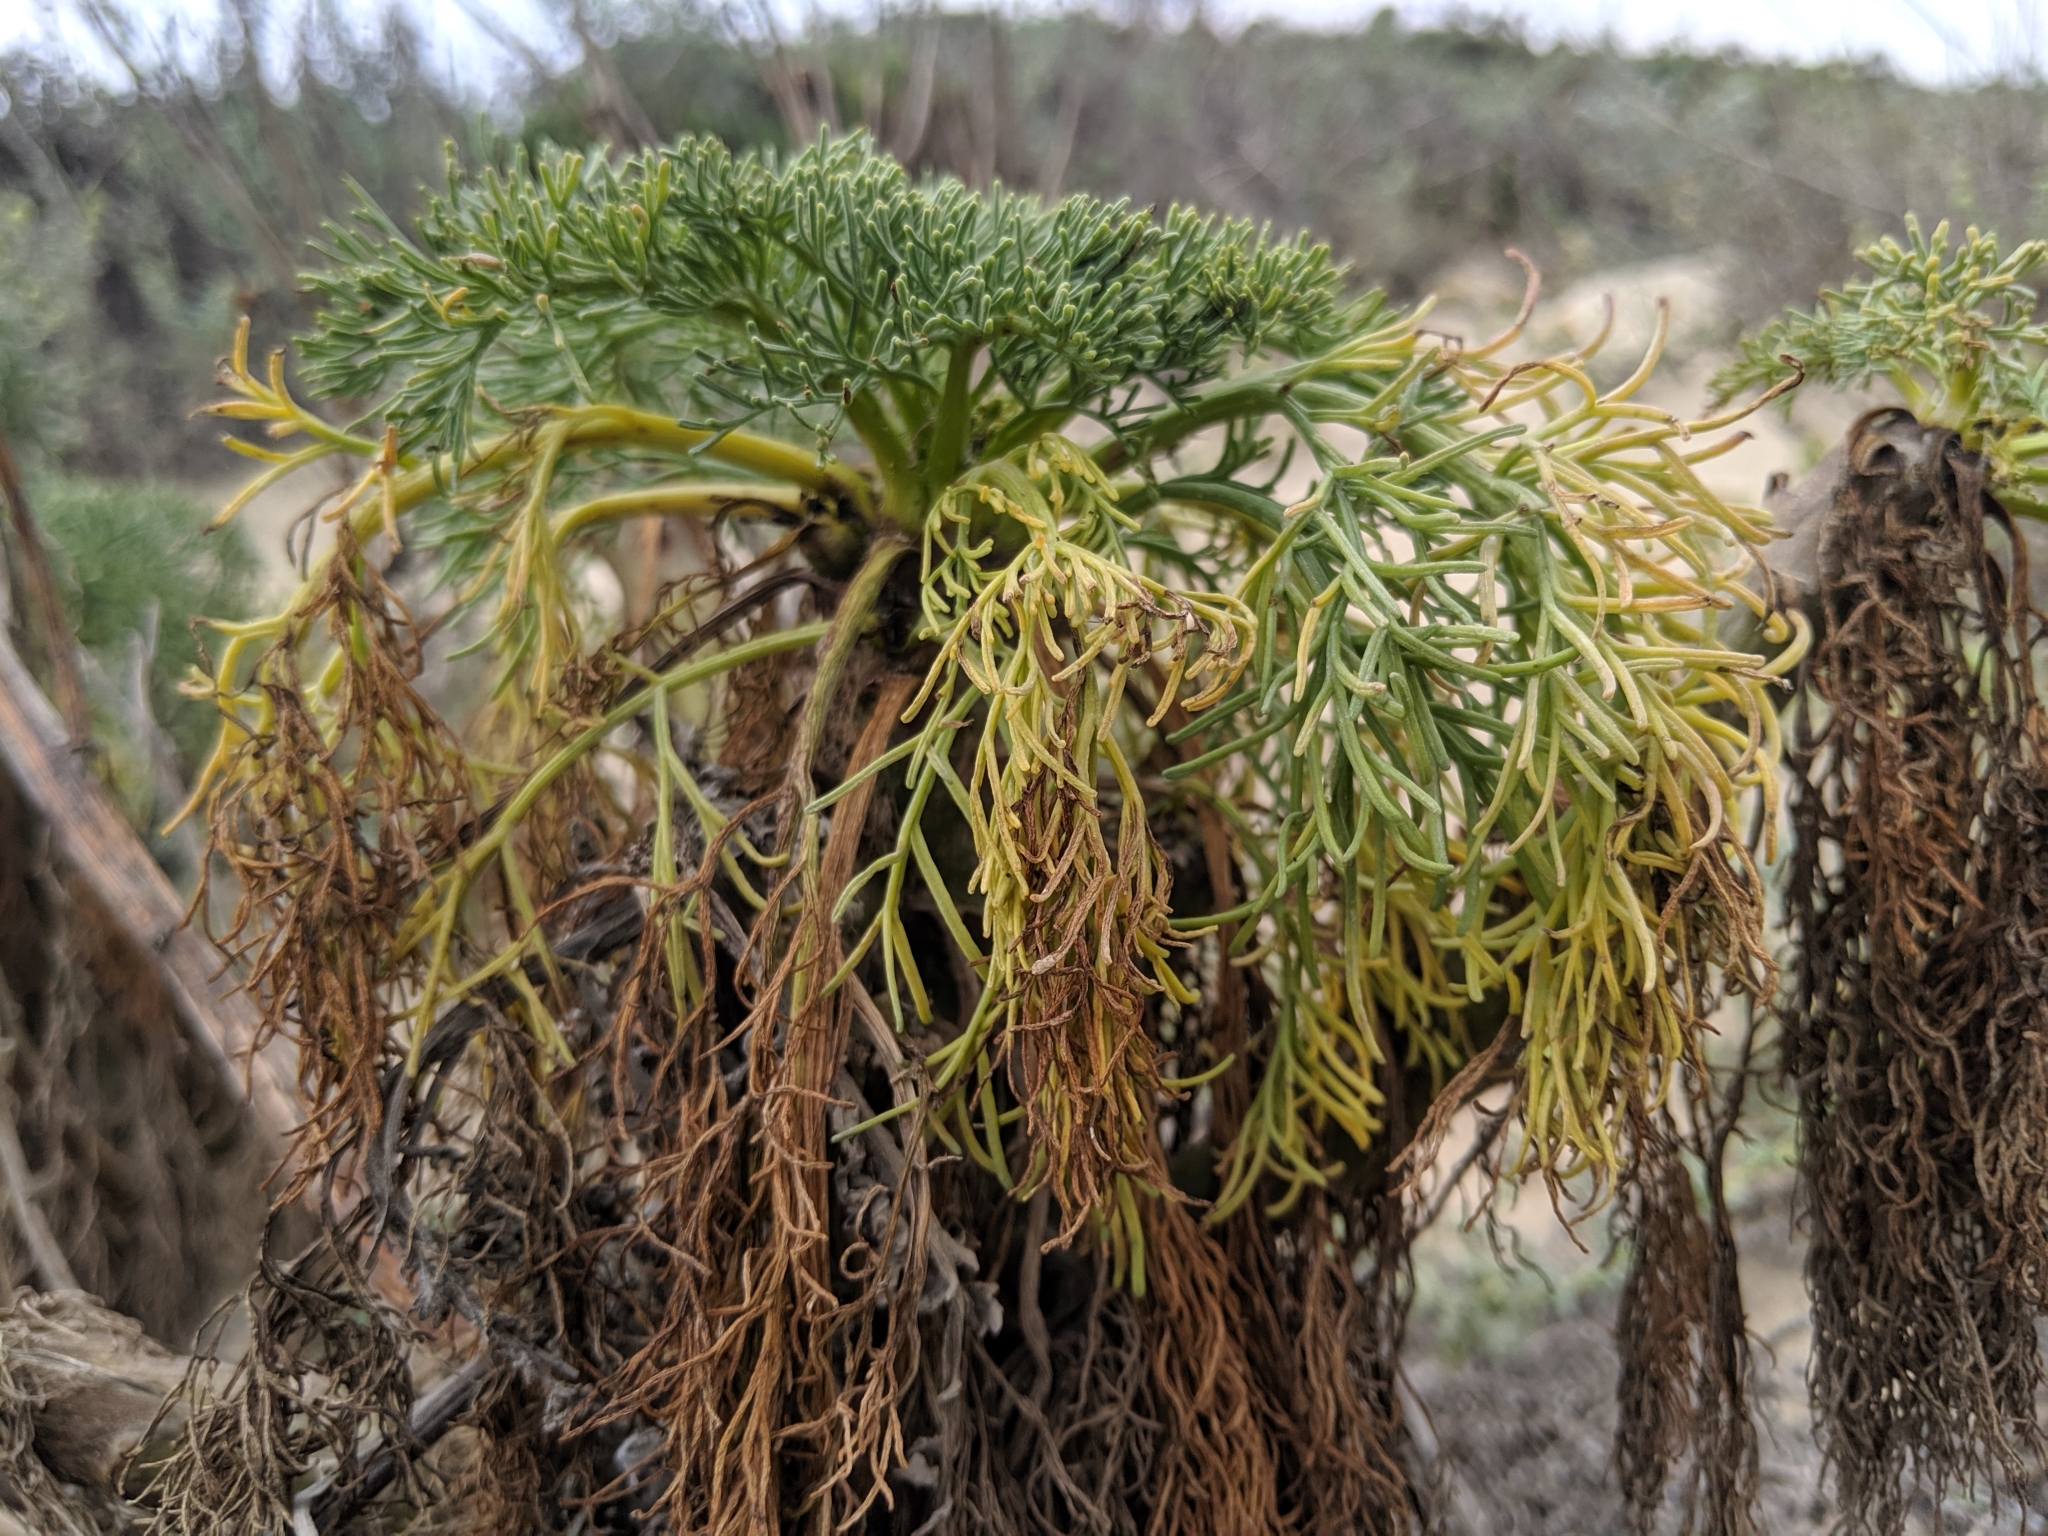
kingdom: Plantae
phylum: Tracheophyta
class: Magnoliopsida
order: Asterales
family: Asteraceae
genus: Coreopsis
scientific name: Coreopsis gigantea
